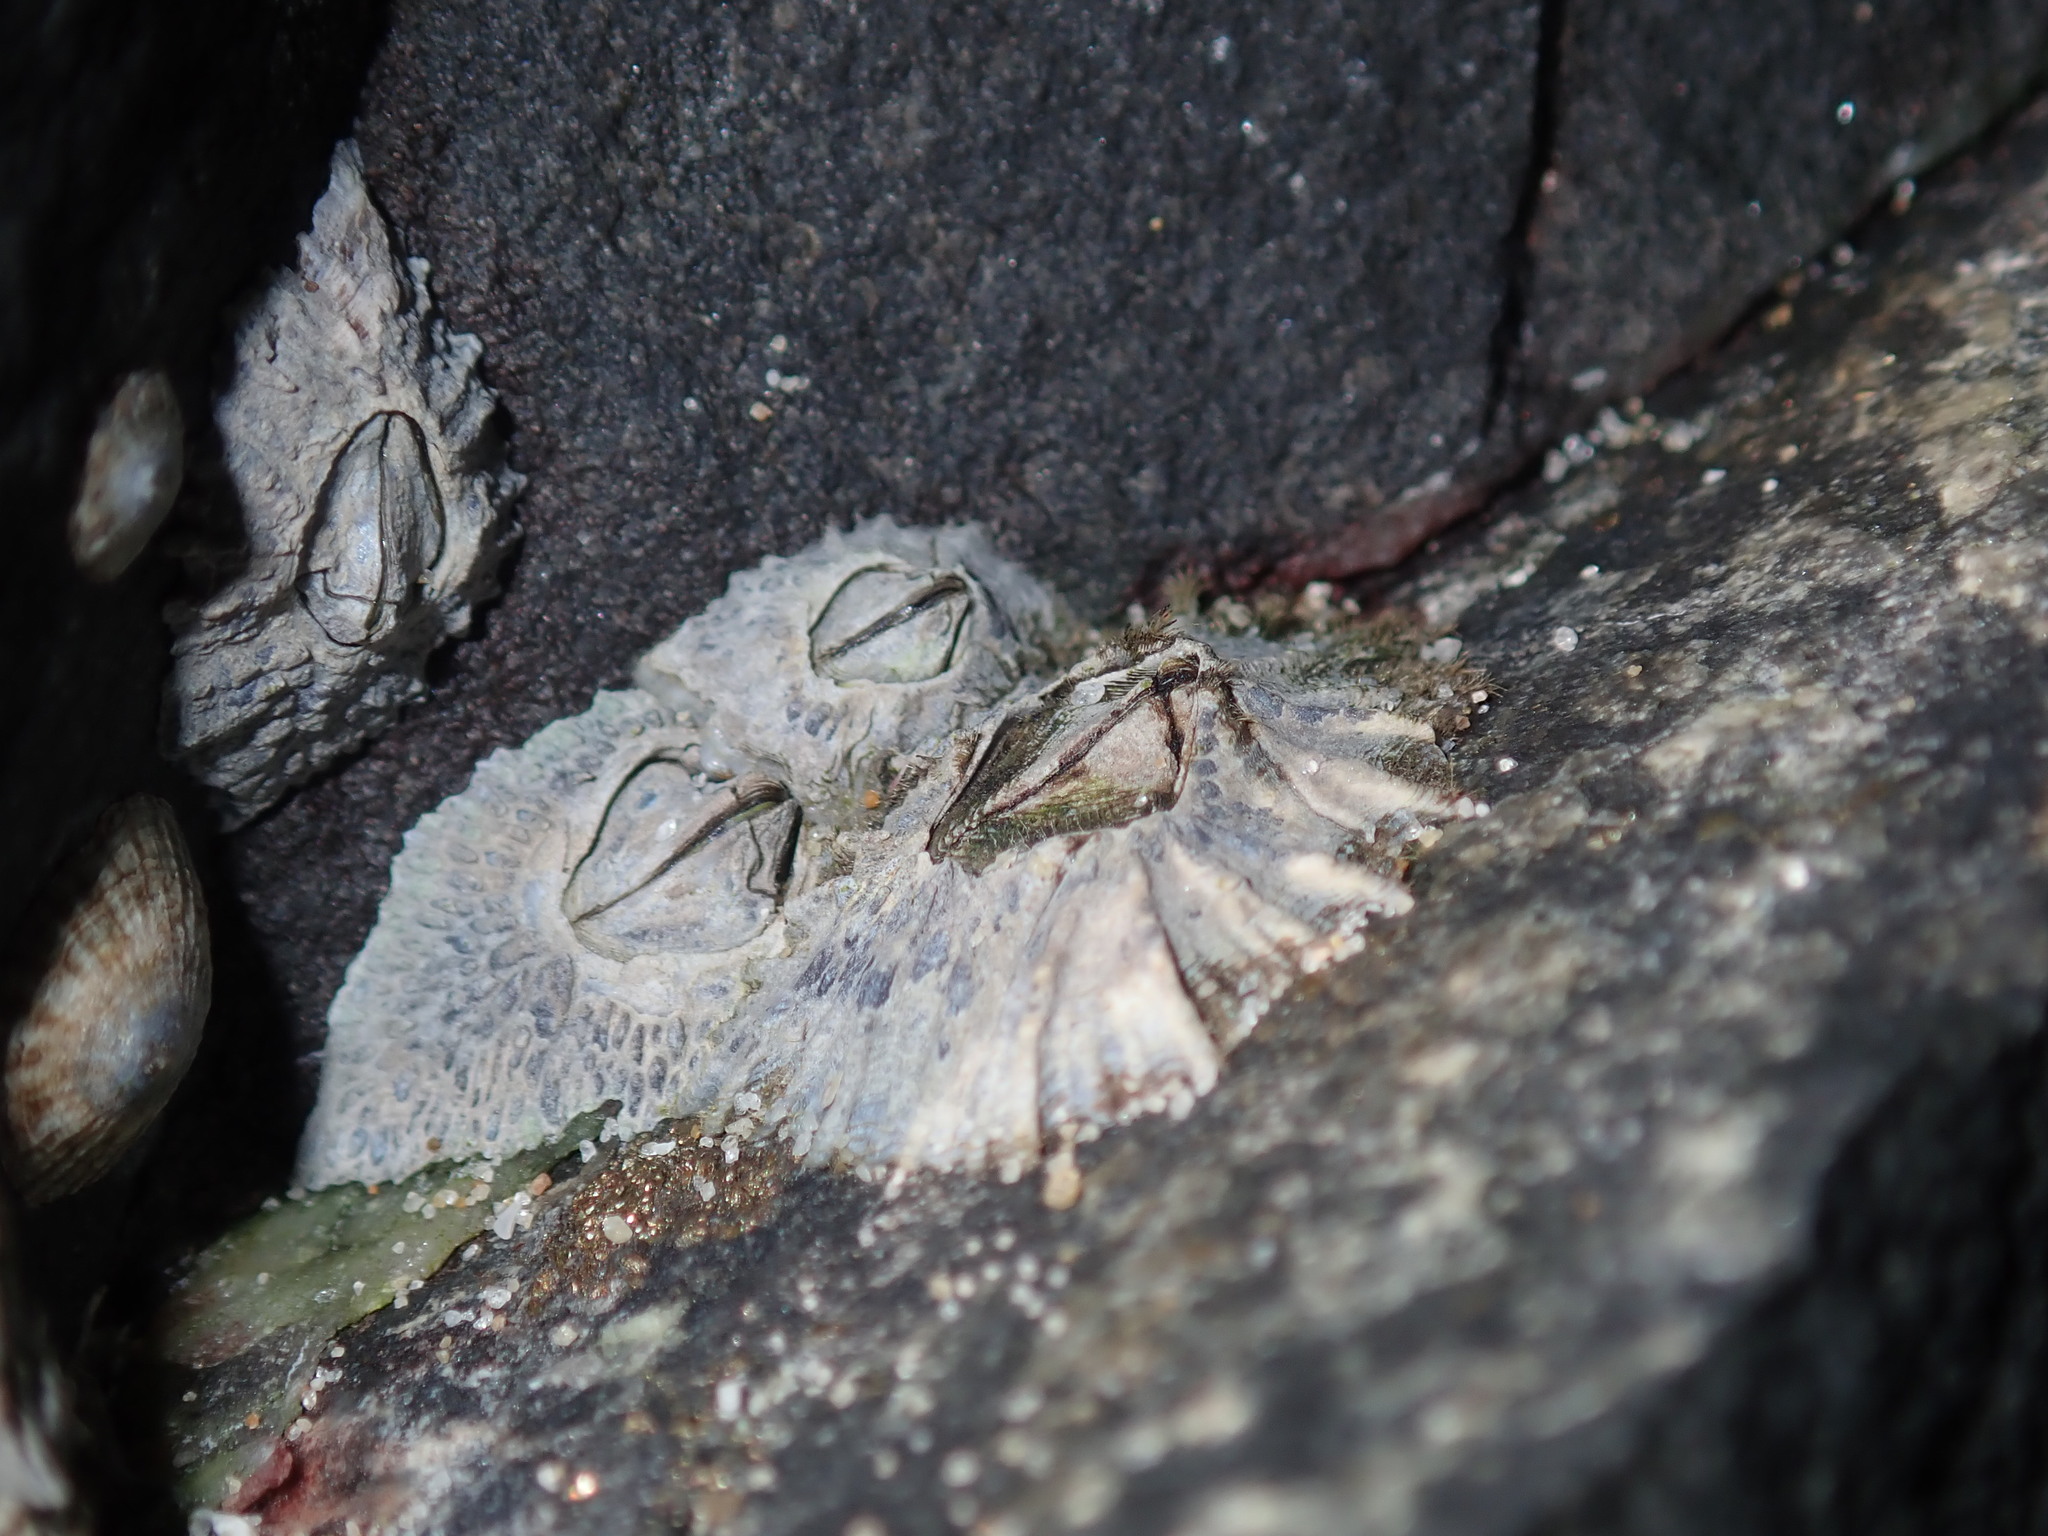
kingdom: Animalia
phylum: Arthropoda
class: Maxillopoda
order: Sessilia
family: Tetraclitidae
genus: Tetraclitella
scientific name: Tetraclitella purpurascens
